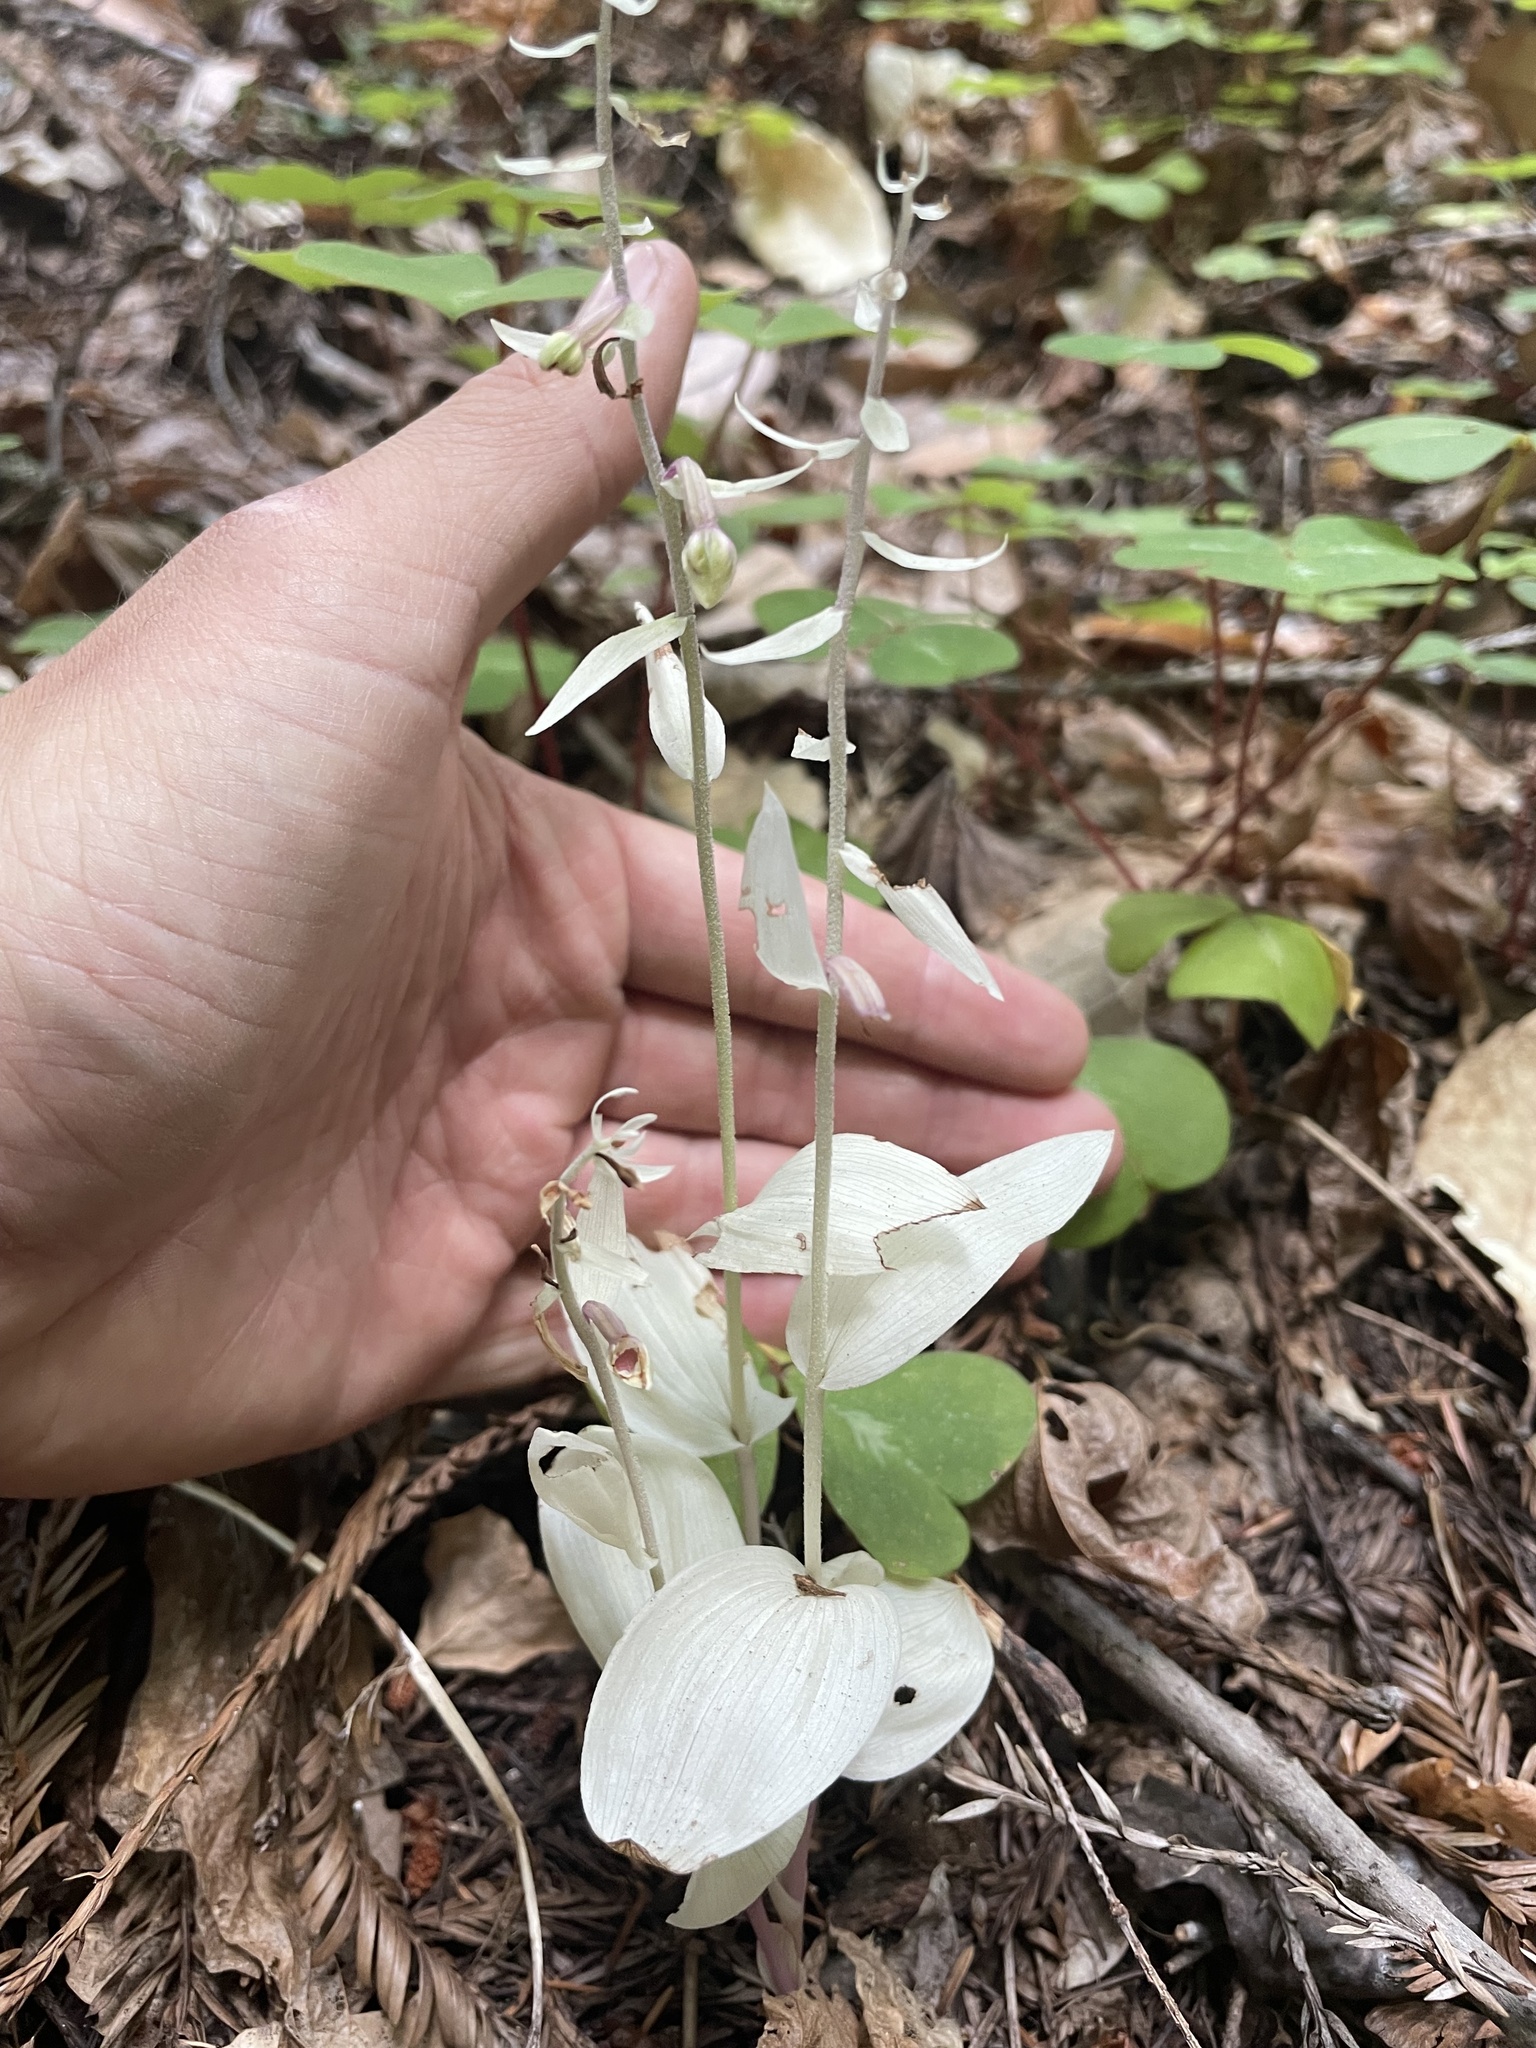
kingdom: Plantae
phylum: Tracheophyta
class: Liliopsida
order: Asparagales
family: Orchidaceae
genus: Epipactis
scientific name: Epipactis helleborine
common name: Broad-leaved helleborine
